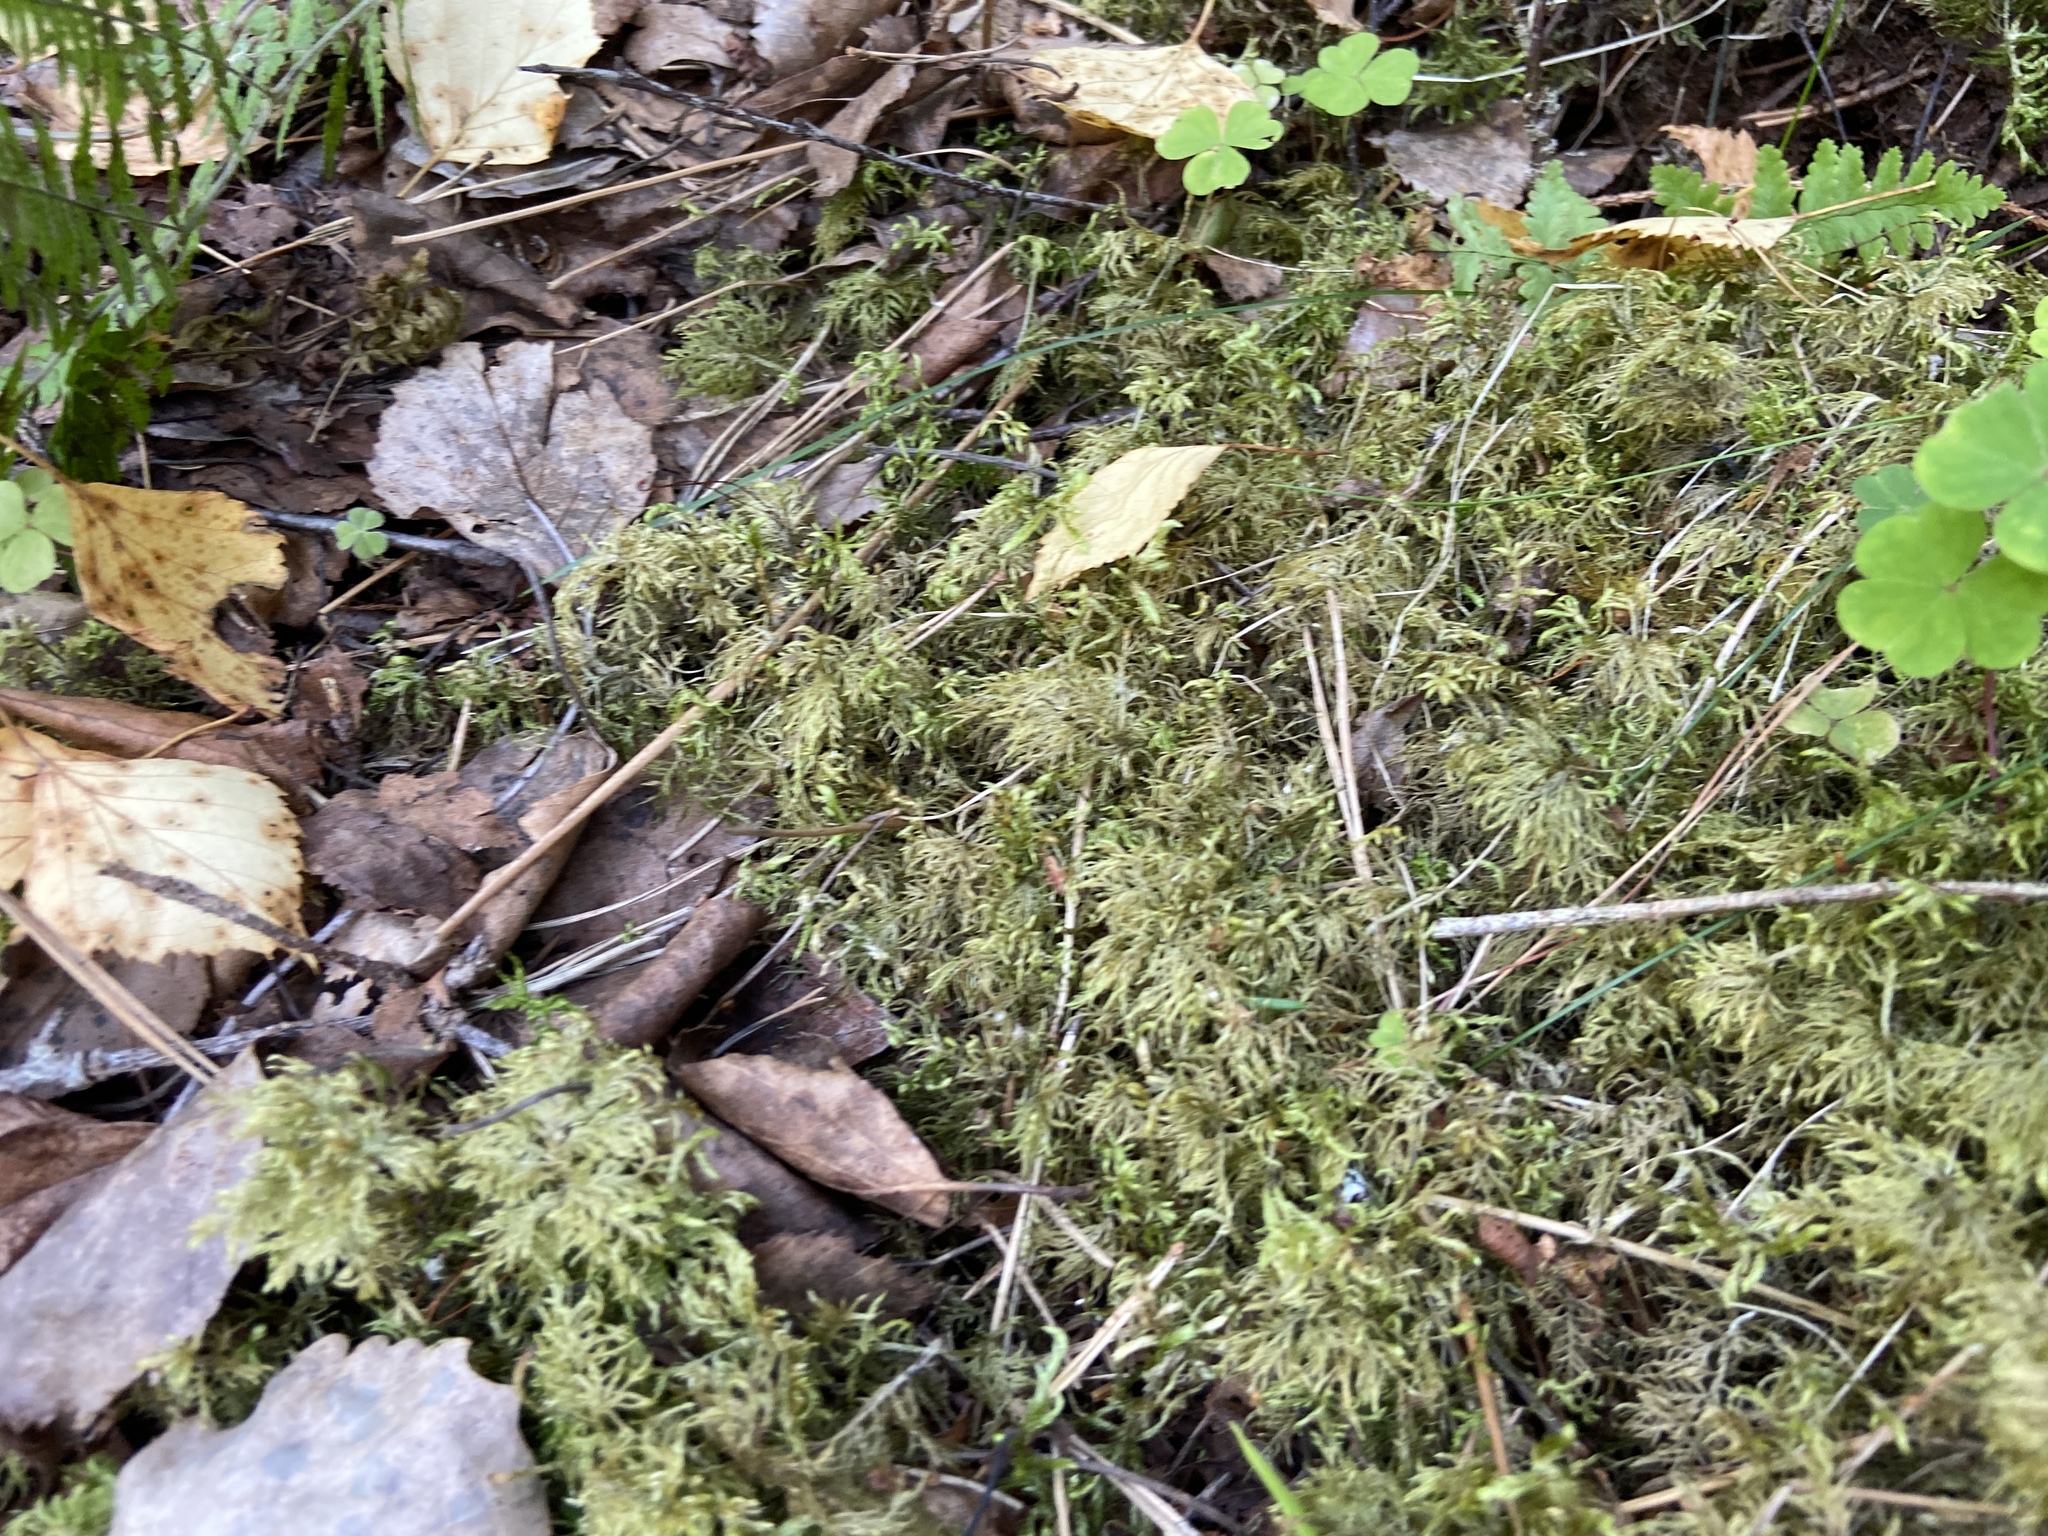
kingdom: Plantae
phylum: Bryophyta
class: Bryopsida
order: Hypnales
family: Hylocomiaceae
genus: Hylocomium
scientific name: Hylocomium splendens
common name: Stairstep moss
